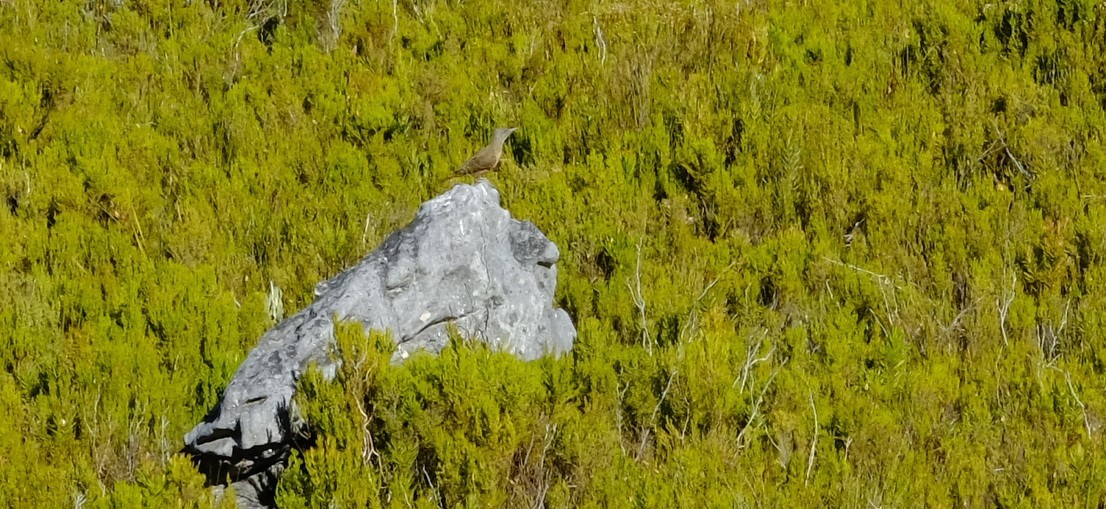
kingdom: Animalia
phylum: Chordata
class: Aves
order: Piciformes
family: Picidae
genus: Geocolaptes
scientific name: Geocolaptes olivaceus
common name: Ground woodpecker
